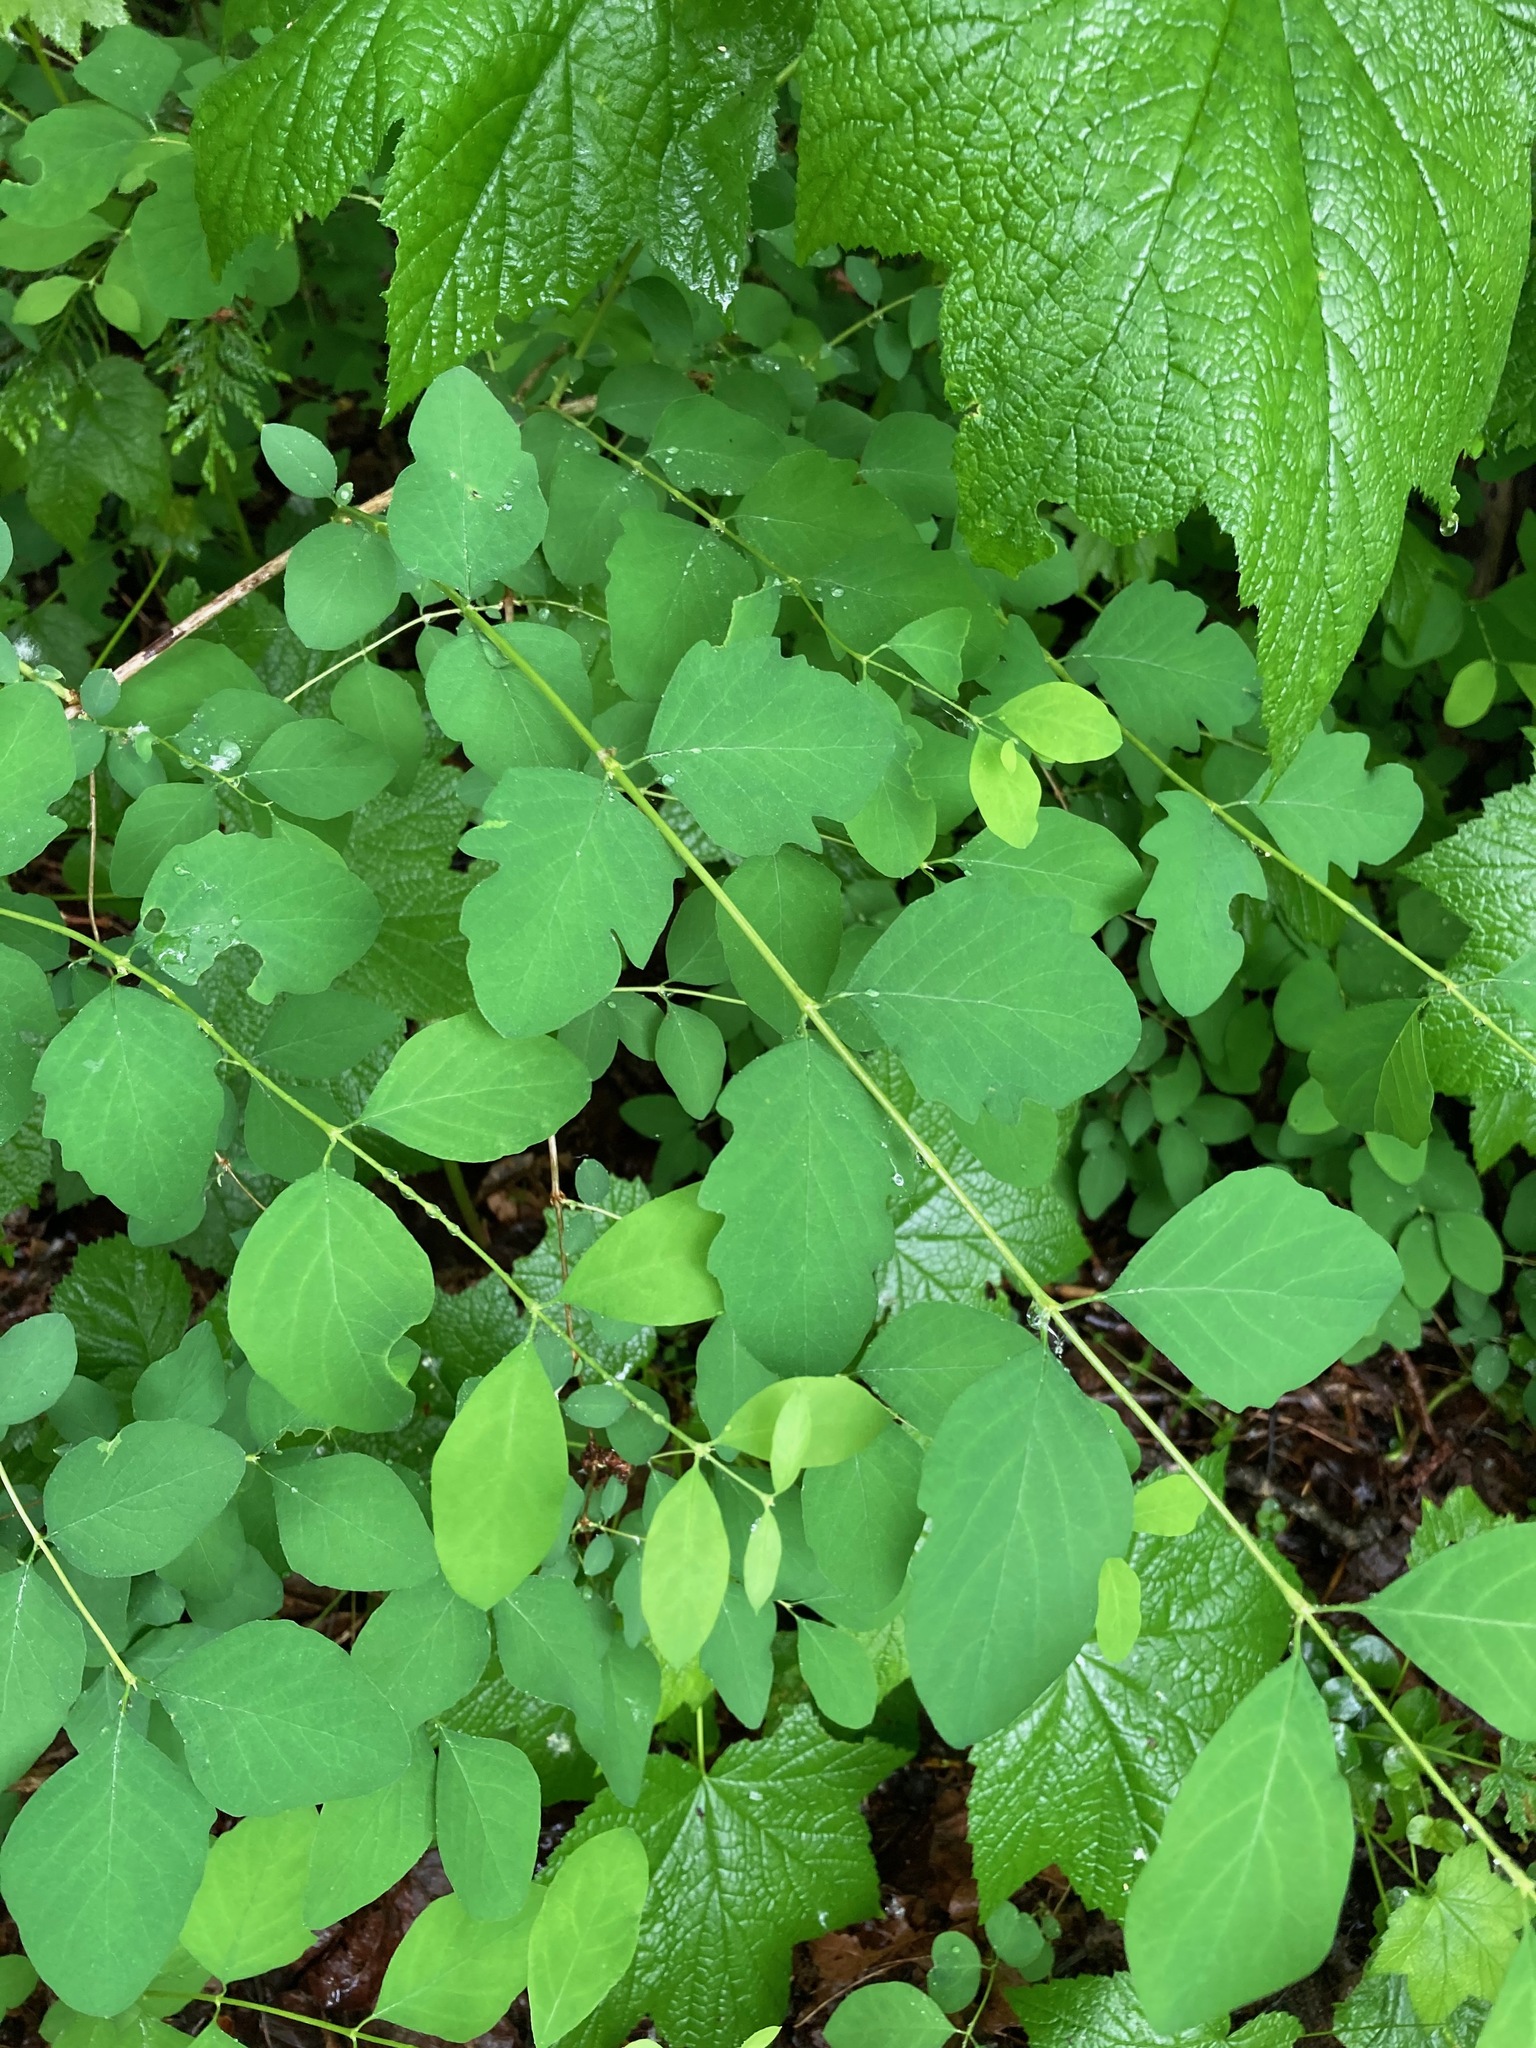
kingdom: Plantae
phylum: Tracheophyta
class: Magnoliopsida
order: Dipsacales
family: Caprifoliaceae
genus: Symphoricarpos
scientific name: Symphoricarpos albus
